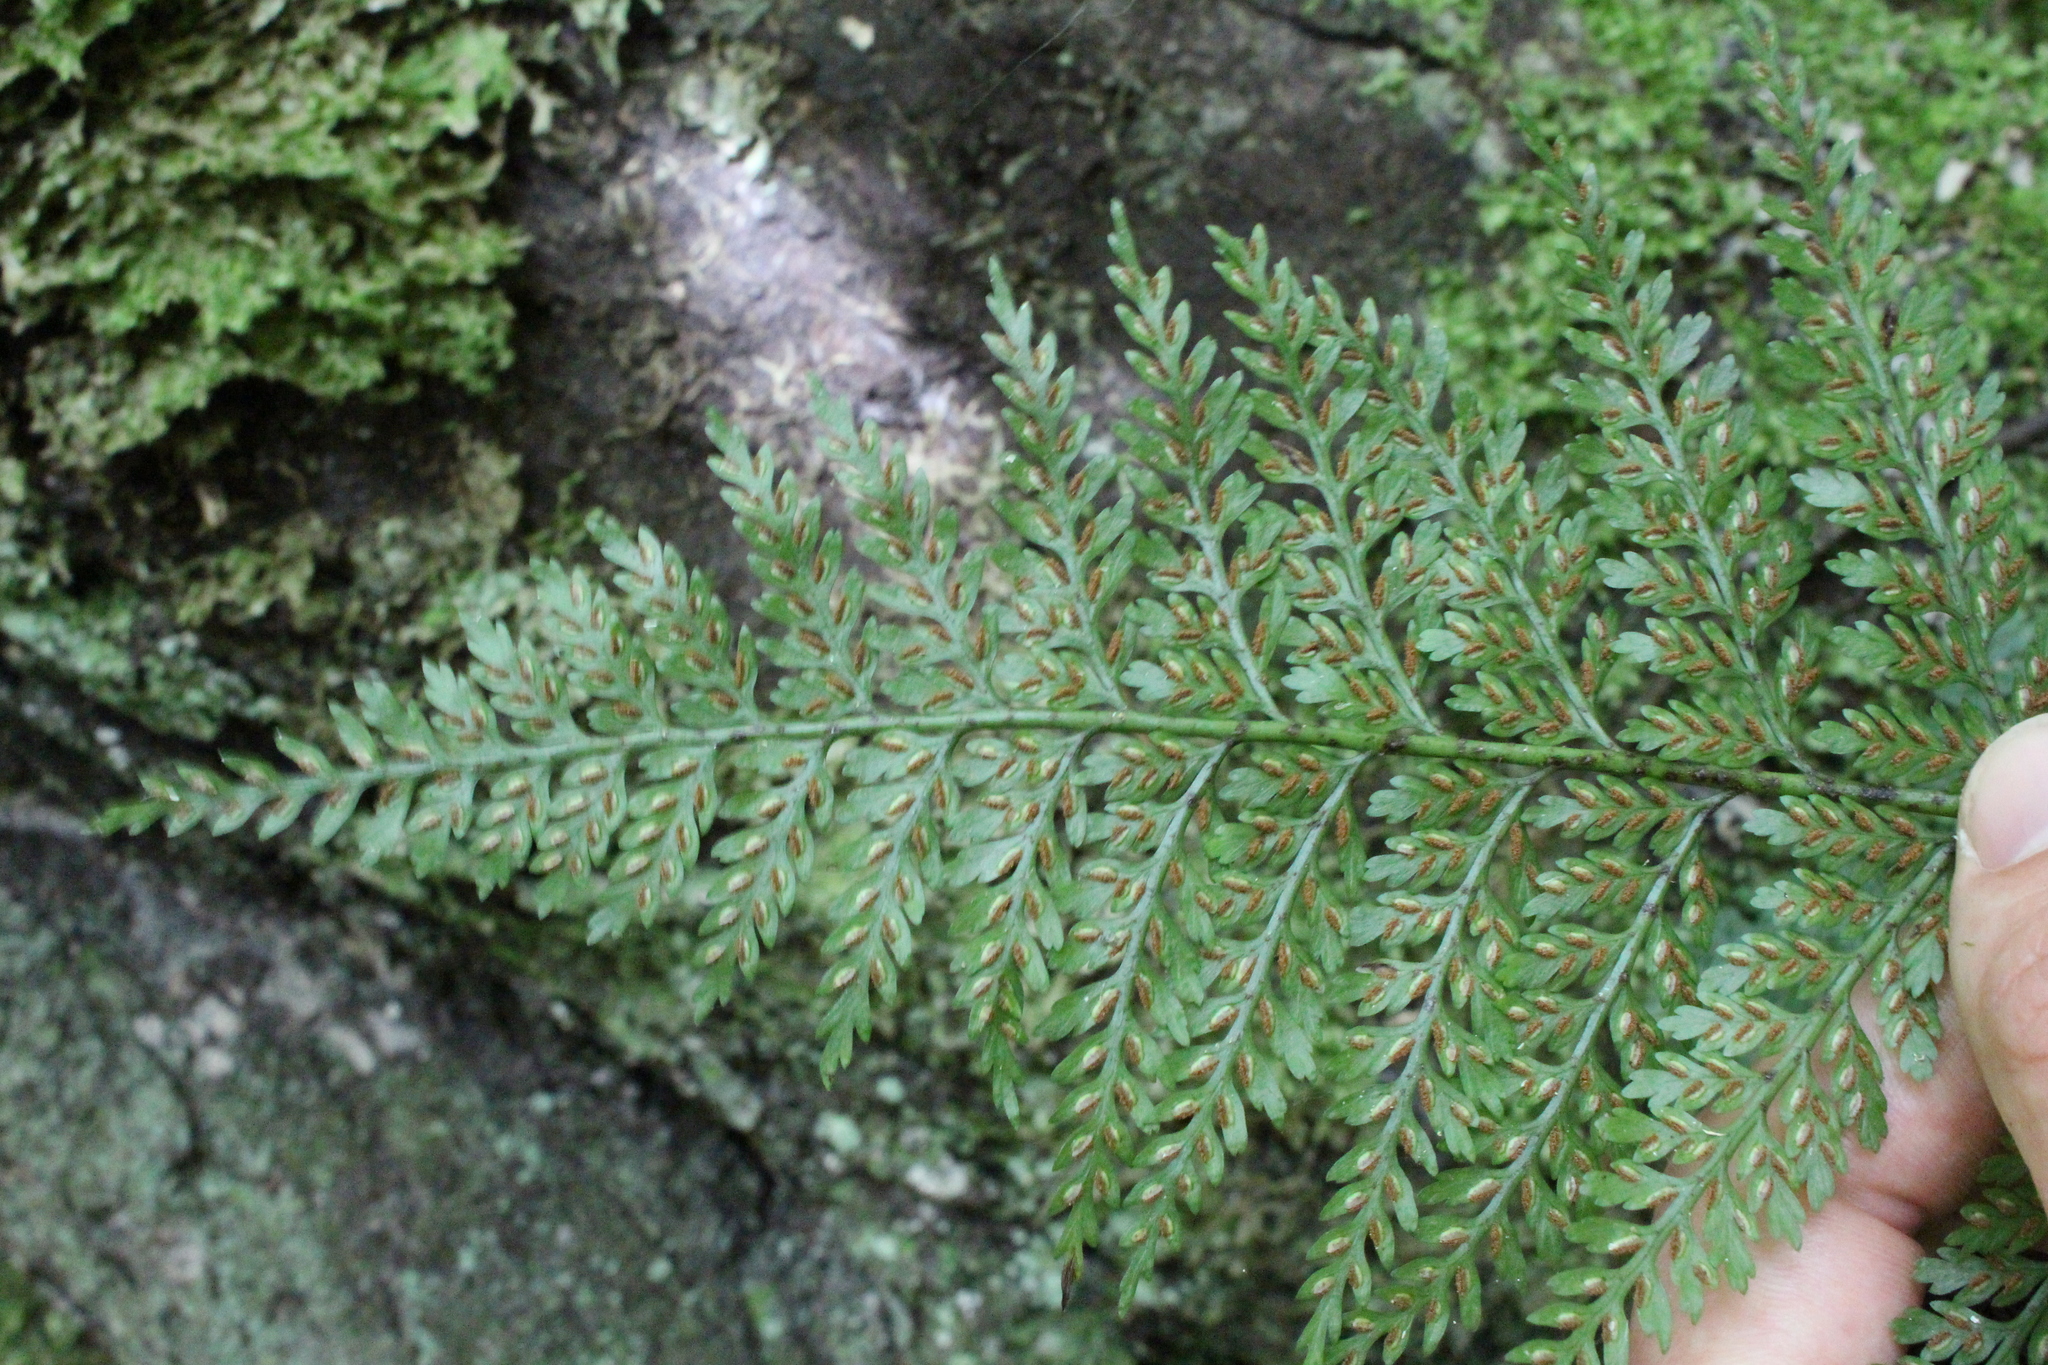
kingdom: Plantae
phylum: Tracheophyta
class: Polypodiopsida
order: Polypodiales
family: Aspleniaceae
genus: Asplenium
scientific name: Asplenium
